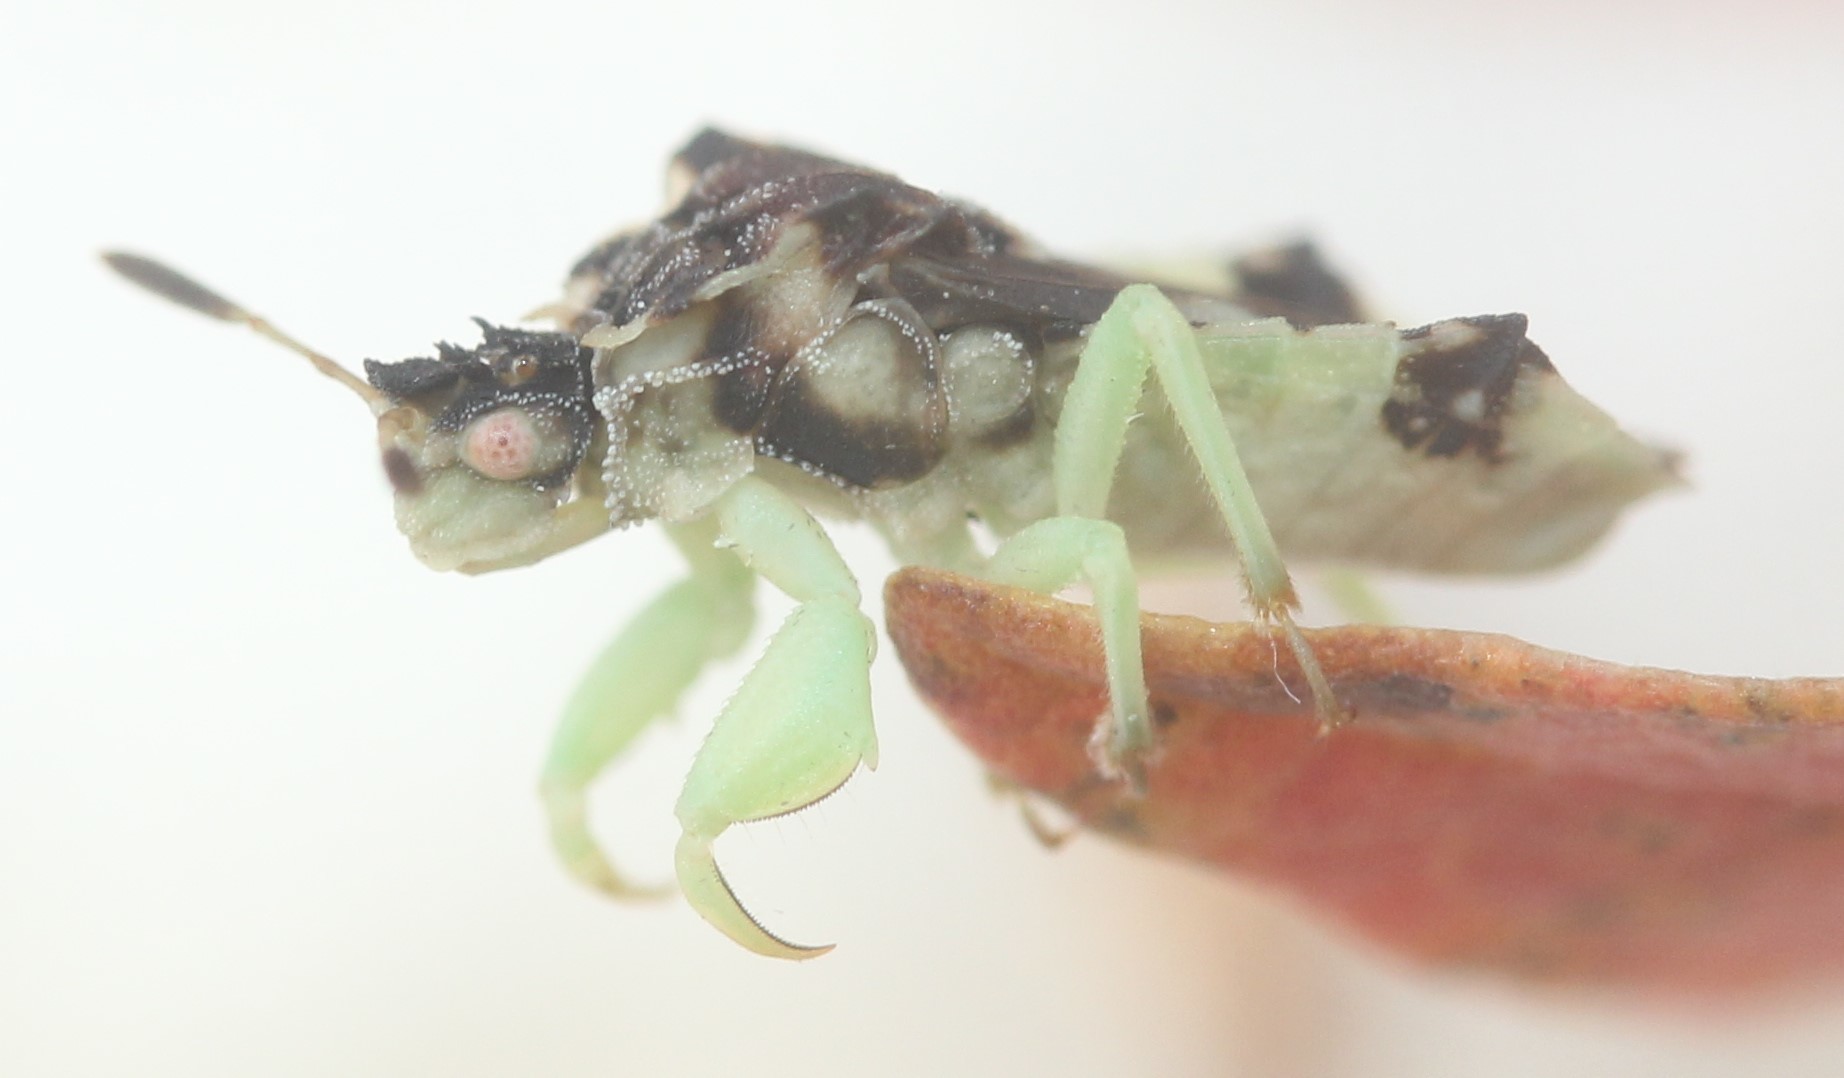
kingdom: Animalia
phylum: Arthropoda
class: Insecta
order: Hemiptera
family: Reduviidae
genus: Phymata
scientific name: Phymata americana
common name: Jagged ambush bug
